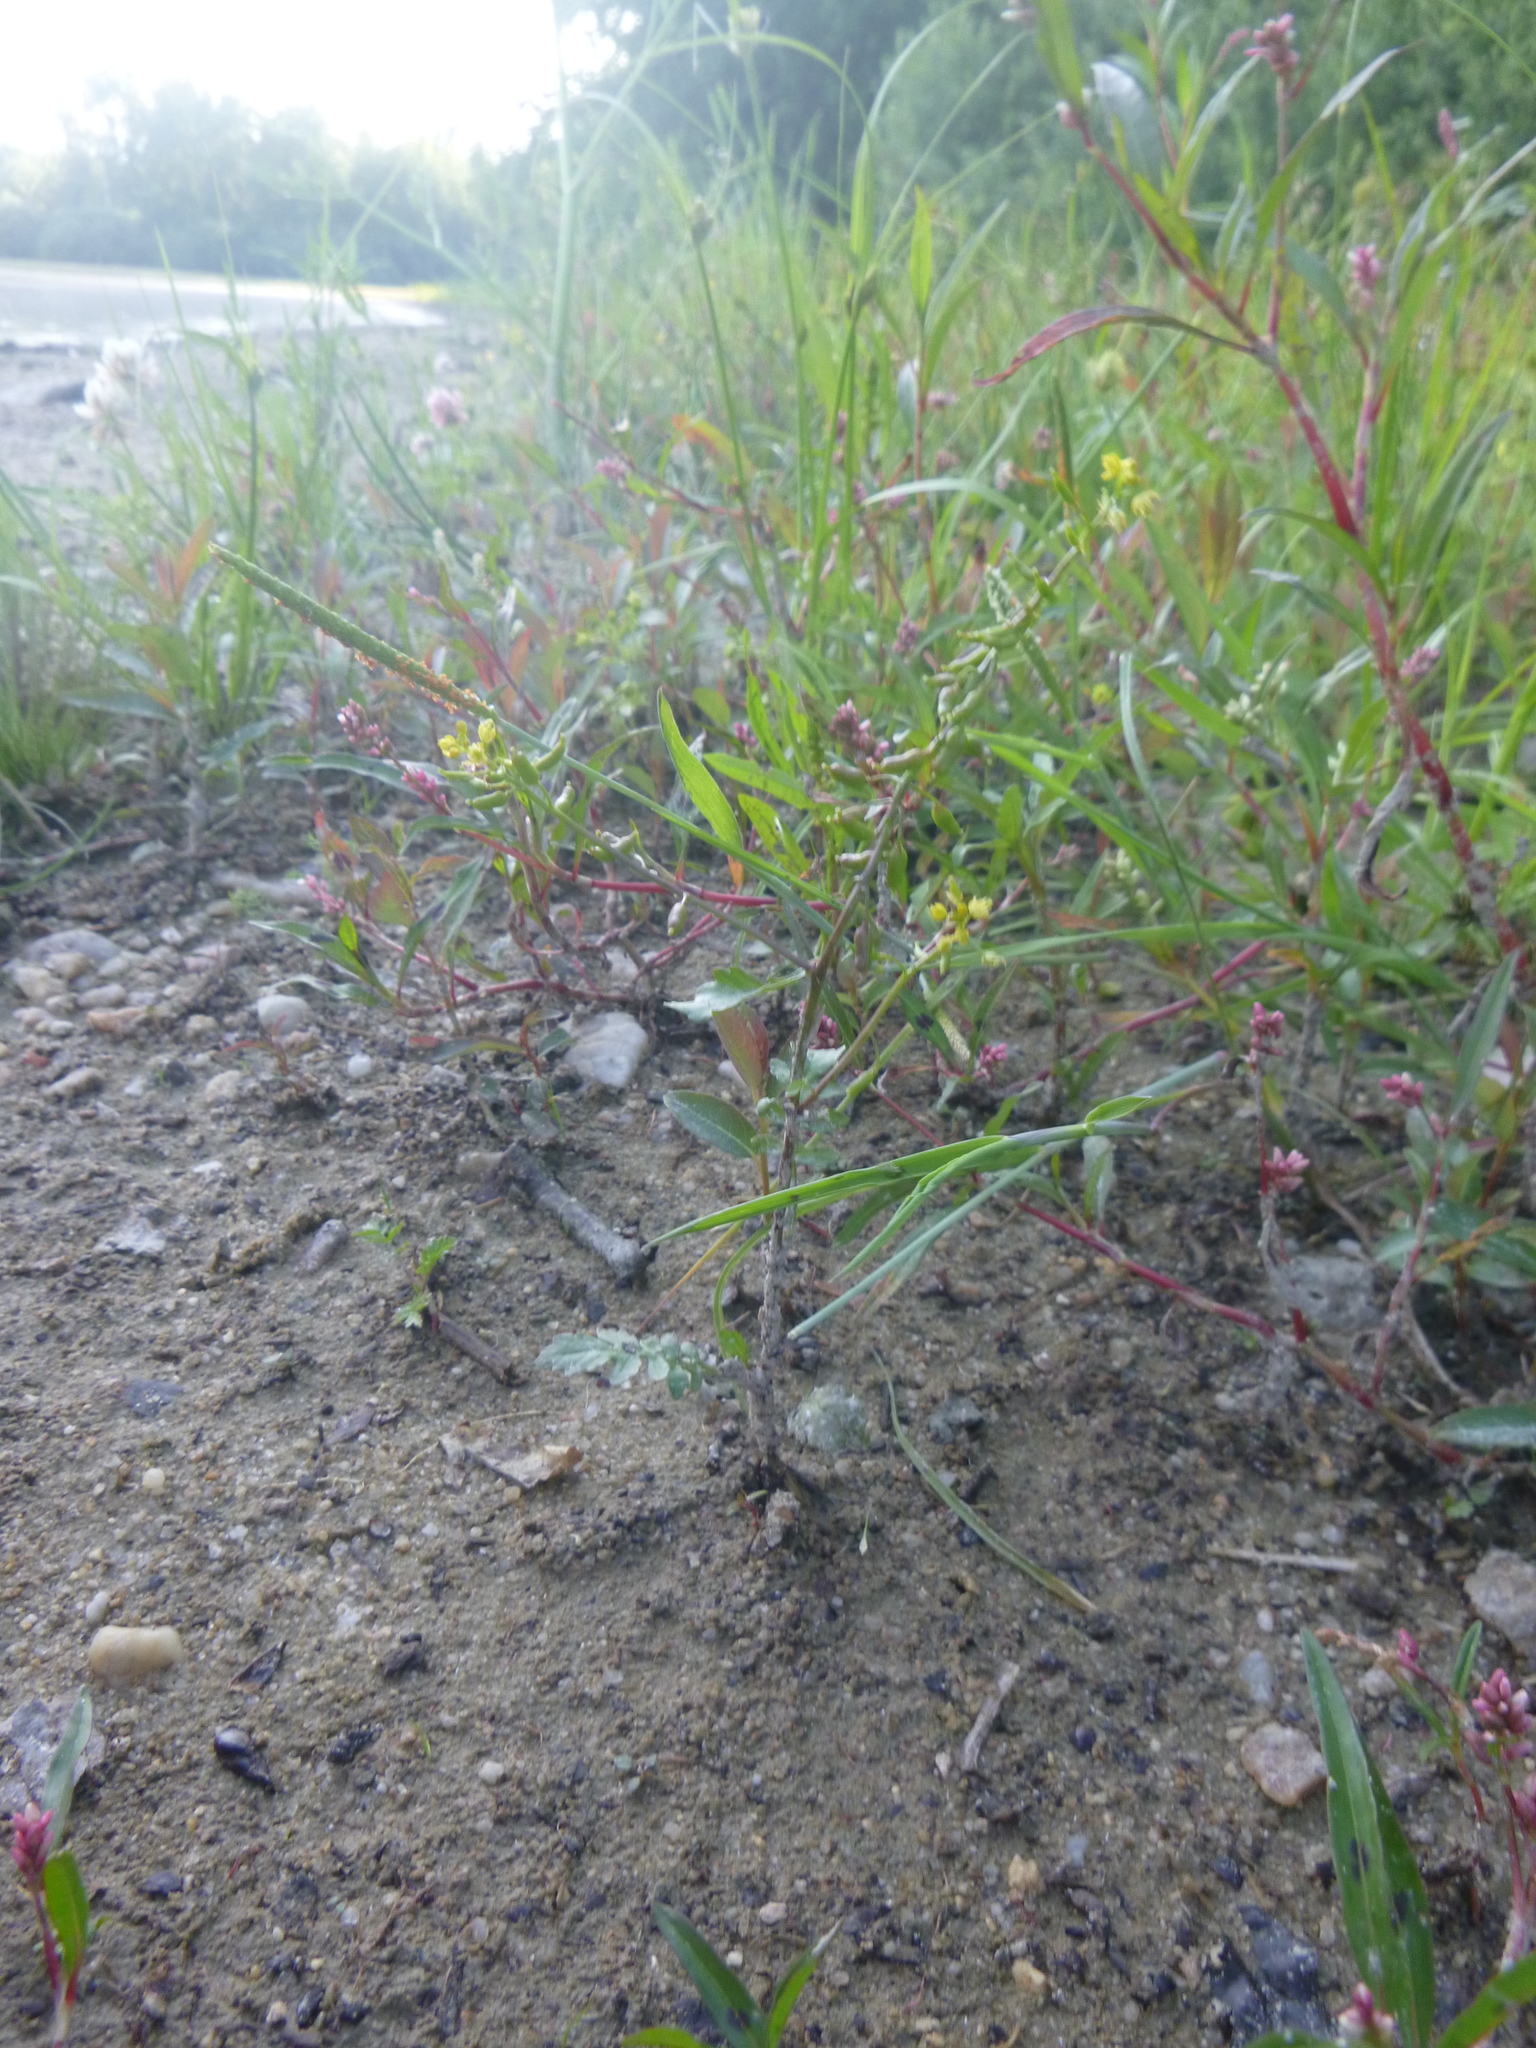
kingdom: Plantae
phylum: Tracheophyta
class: Magnoliopsida
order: Brassicales
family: Brassicaceae
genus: Rorippa
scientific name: Rorippa palustris
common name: Marsh yellow-cress
